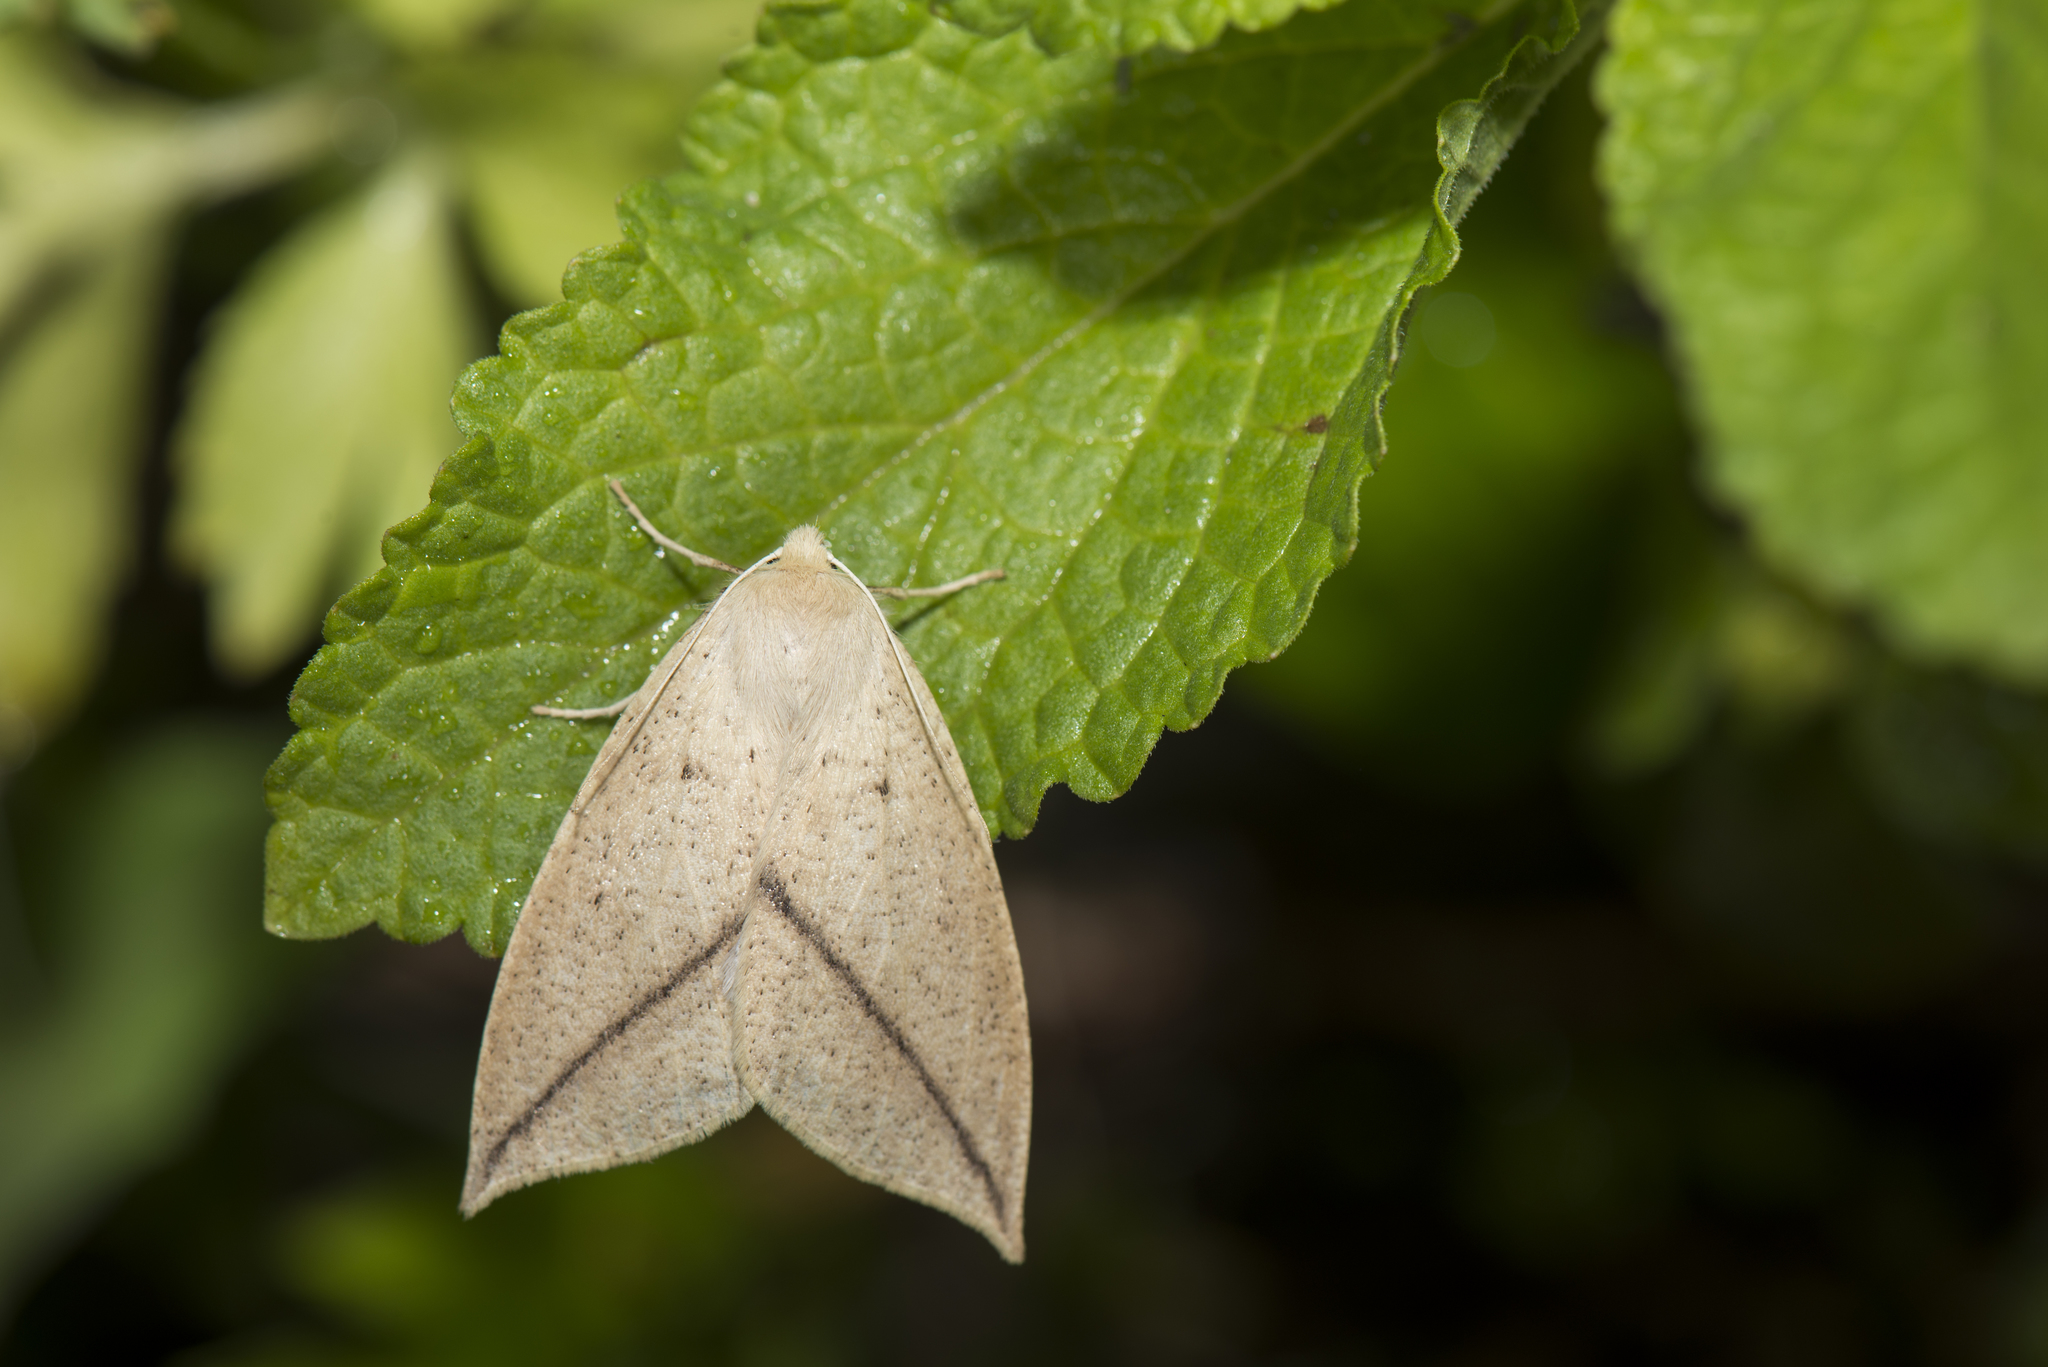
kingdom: Animalia
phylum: Arthropoda
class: Insecta
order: Lepidoptera
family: Geometridae
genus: Descoreba
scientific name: Descoreba simplex
